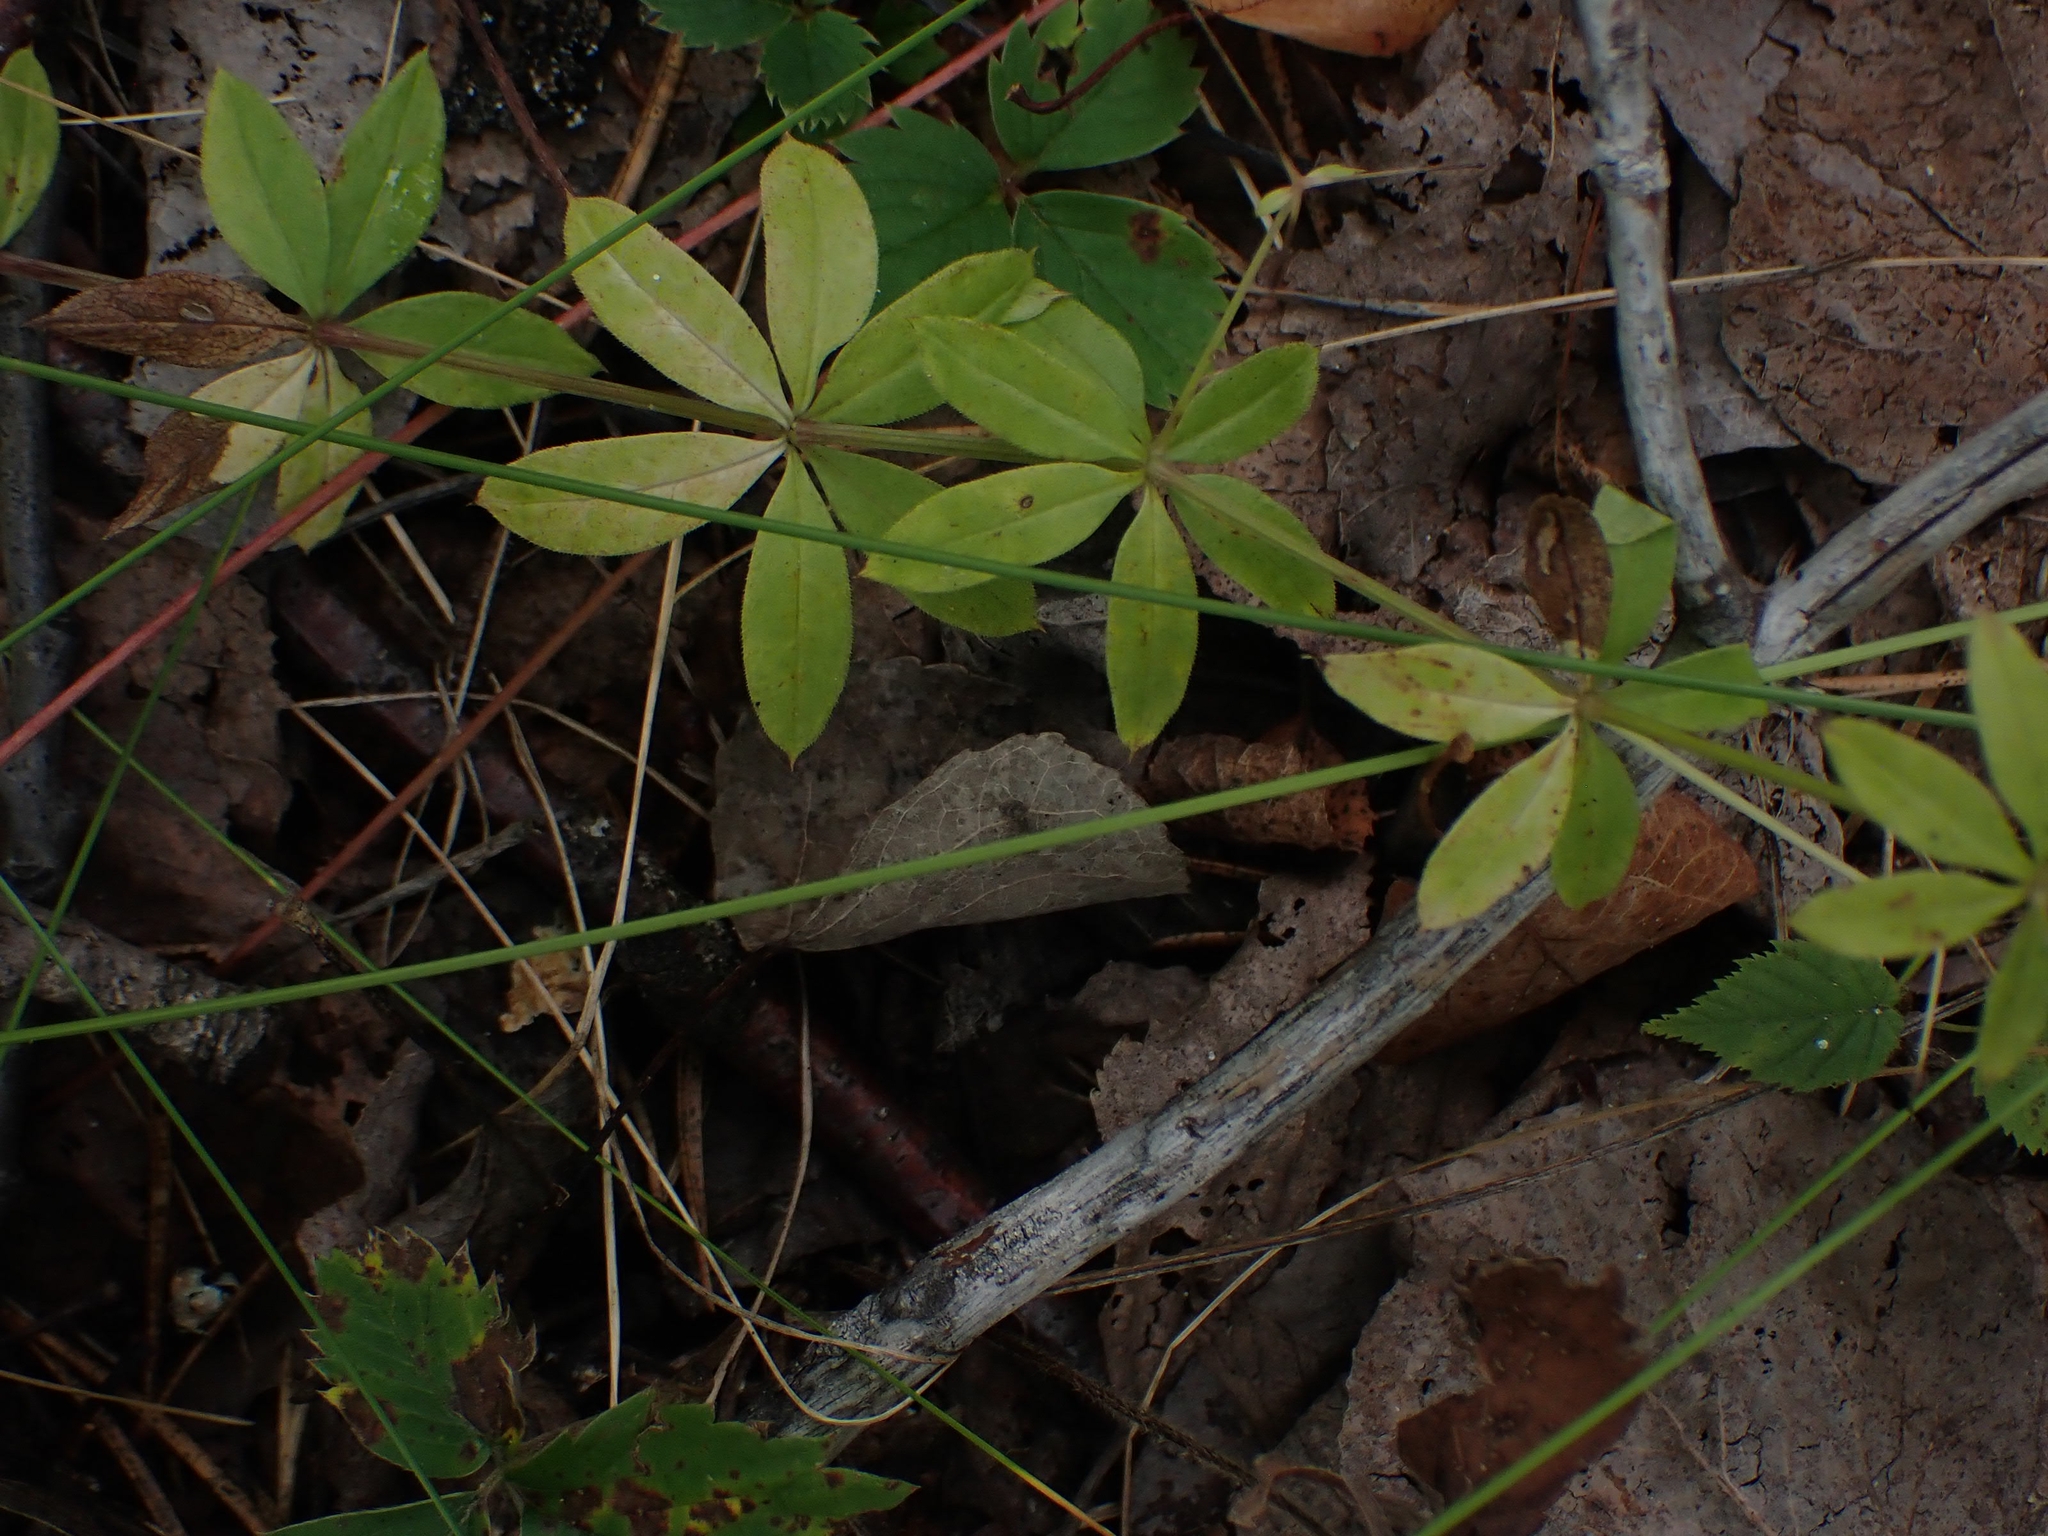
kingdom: Plantae
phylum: Tracheophyta
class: Magnoliopsida
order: Gentianales
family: Rubiaceae
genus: Galium
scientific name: Galium triflorum
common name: Fragrant bedstraw
